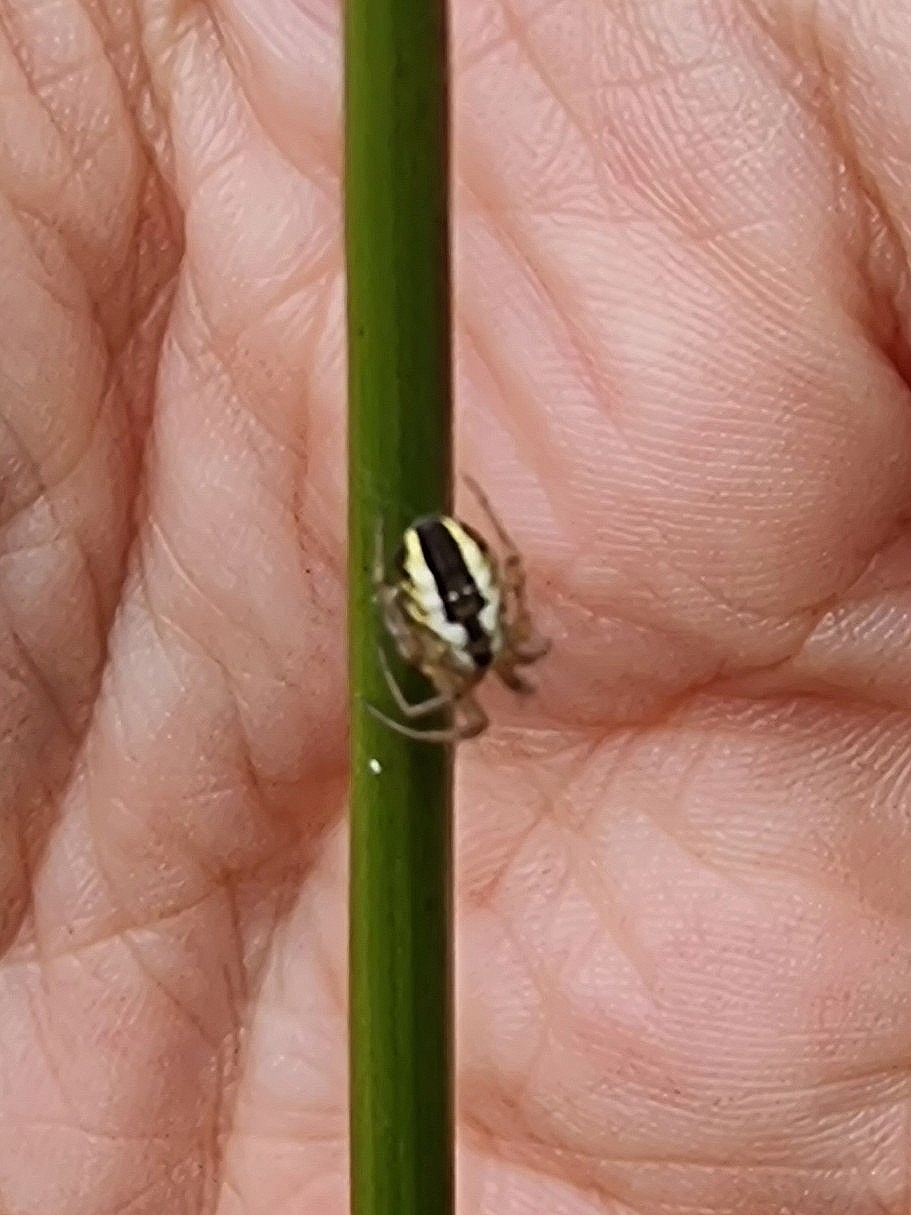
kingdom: Animalia
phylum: Arthropoda
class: Arachnida
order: Araneae
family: Araneidae
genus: Mangora
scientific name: Mangora acalypha
